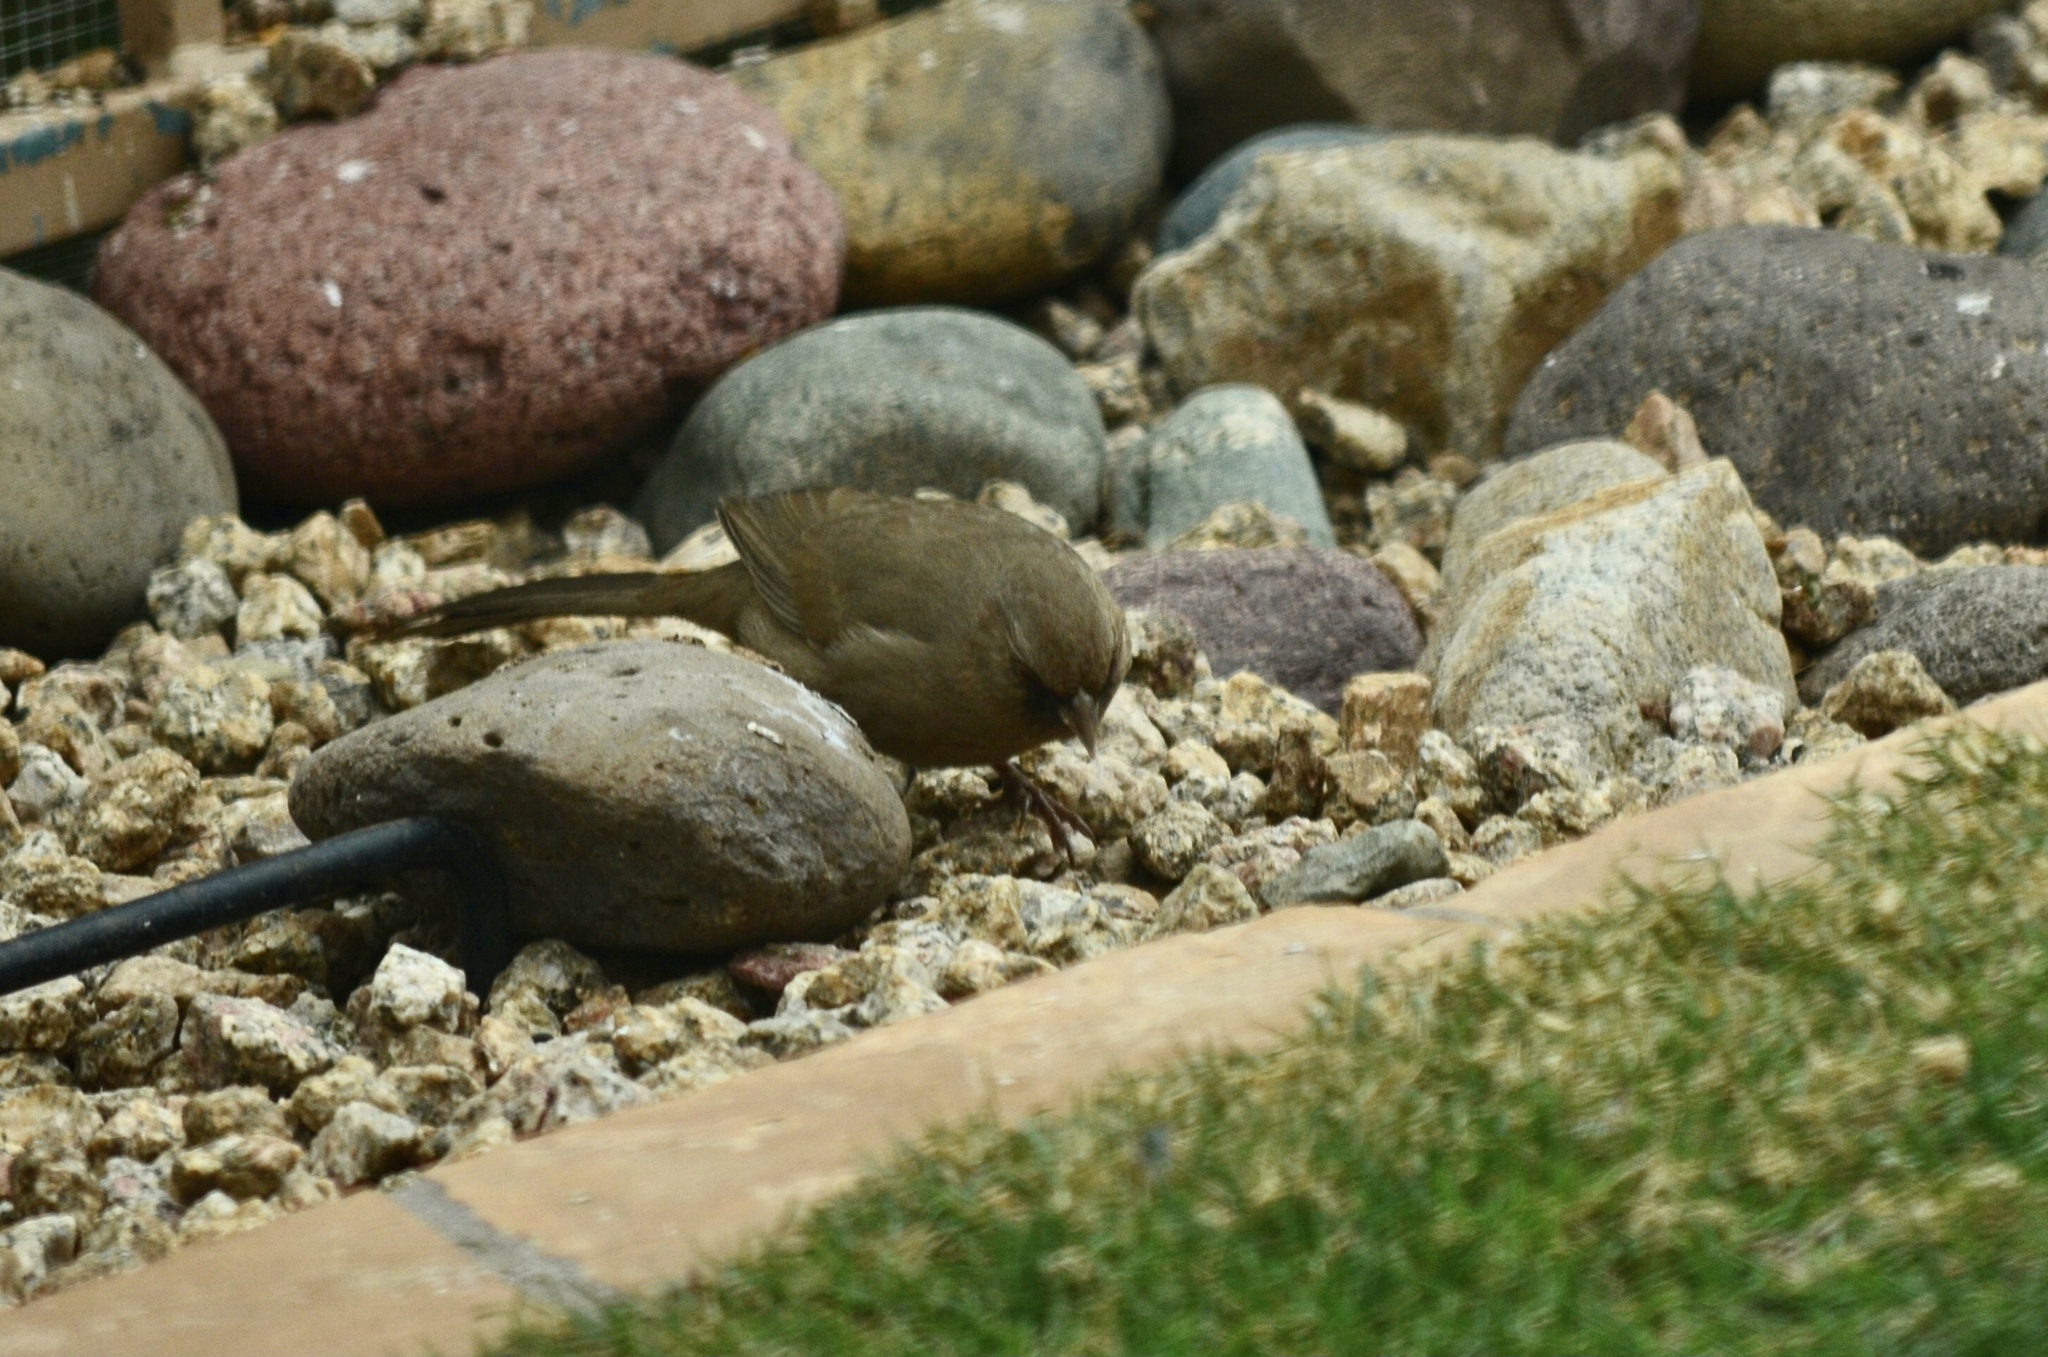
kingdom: Animalia
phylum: Chordata
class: Aves
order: Passeriformes
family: Passerellidae
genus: Melozone
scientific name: Melozone aberti
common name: Abert's towhee
